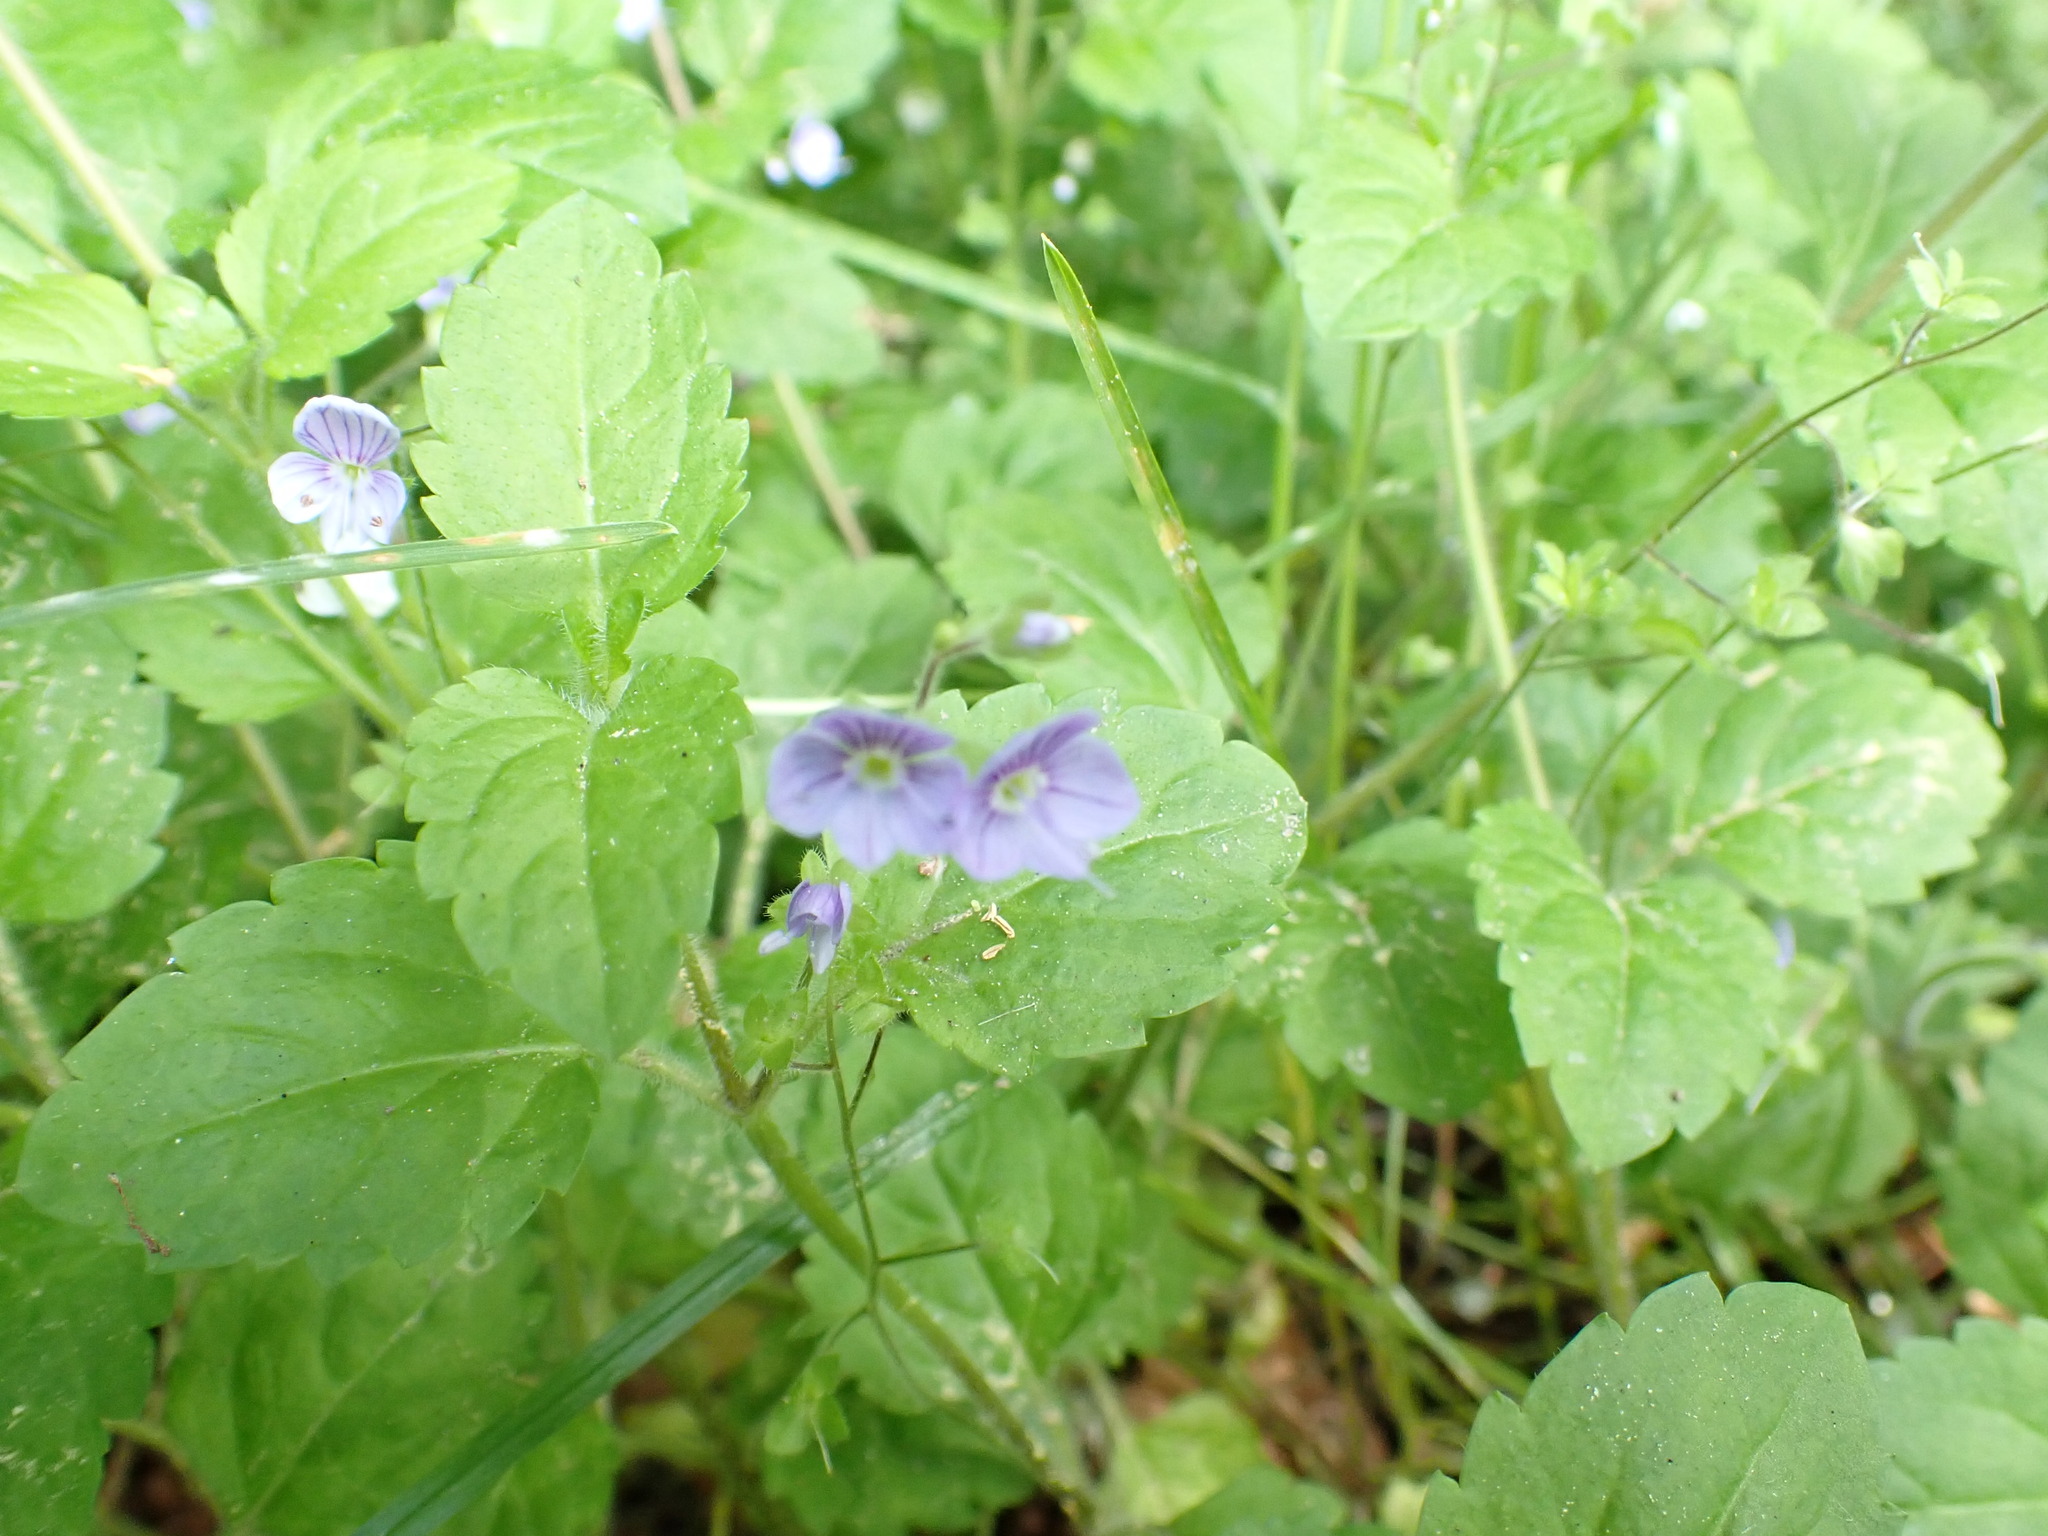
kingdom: Plantae
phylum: Tracheophyta
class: Magnoliopsida
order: Lamiales
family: Plantaginaceae
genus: Veronica
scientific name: Veronica montana
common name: Wood speedwell
